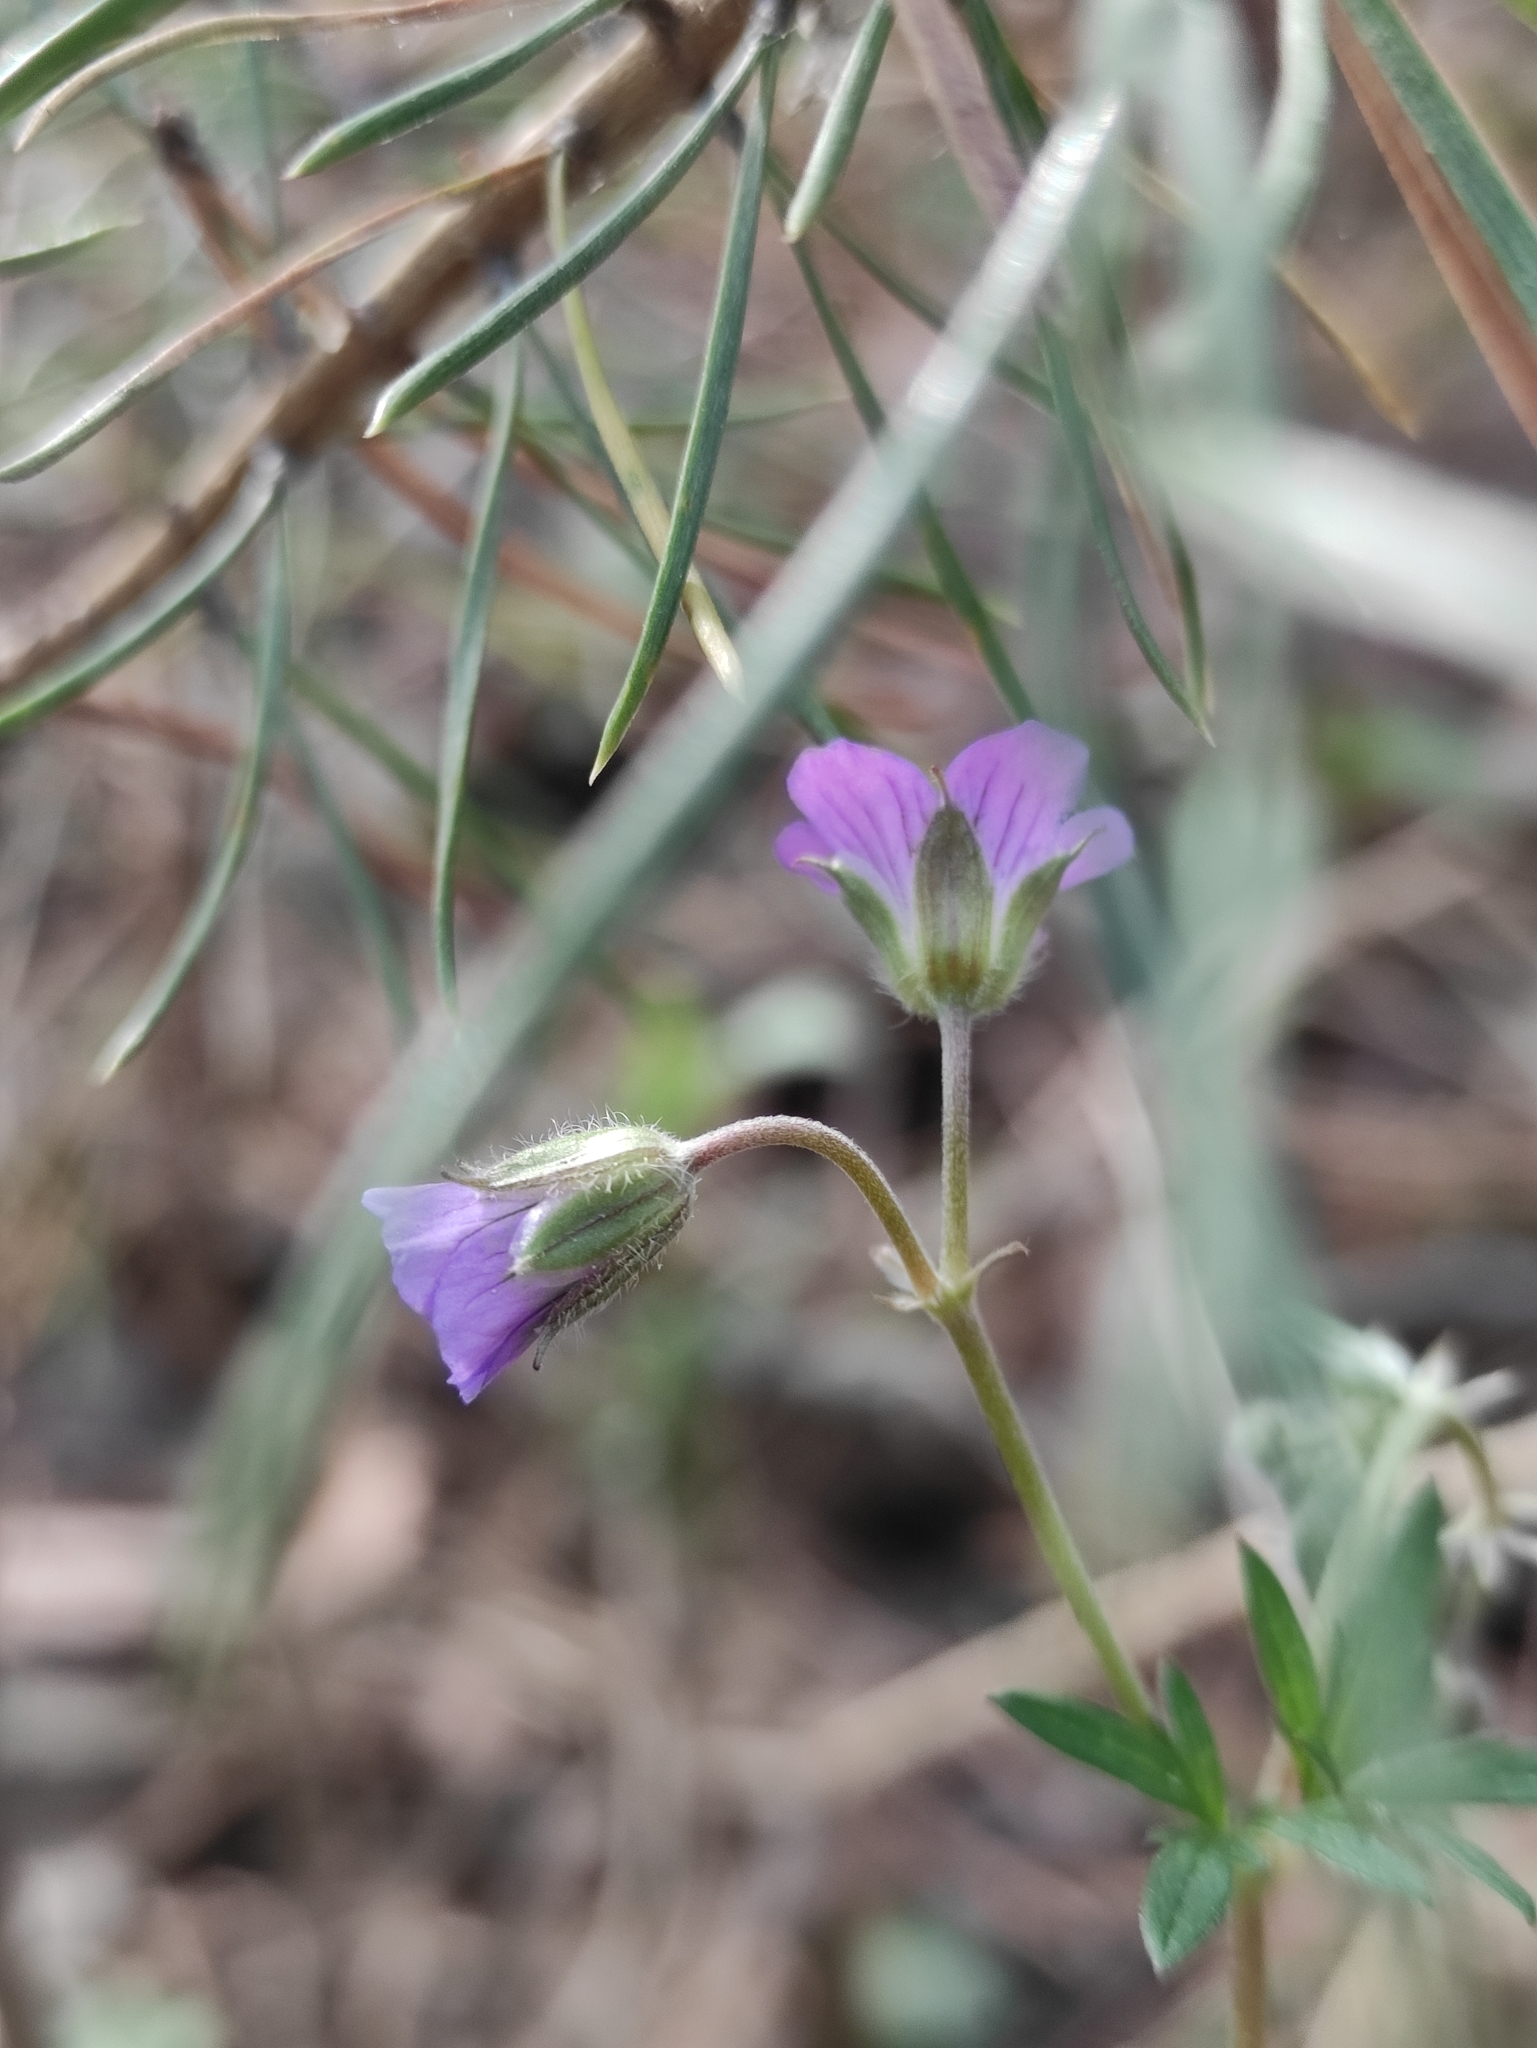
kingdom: Plantae
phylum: Tracheophyta
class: Magnoliopsida
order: Geraniales
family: Geraniaceae
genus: Geranium
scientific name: Geranium pseudosibiricum
